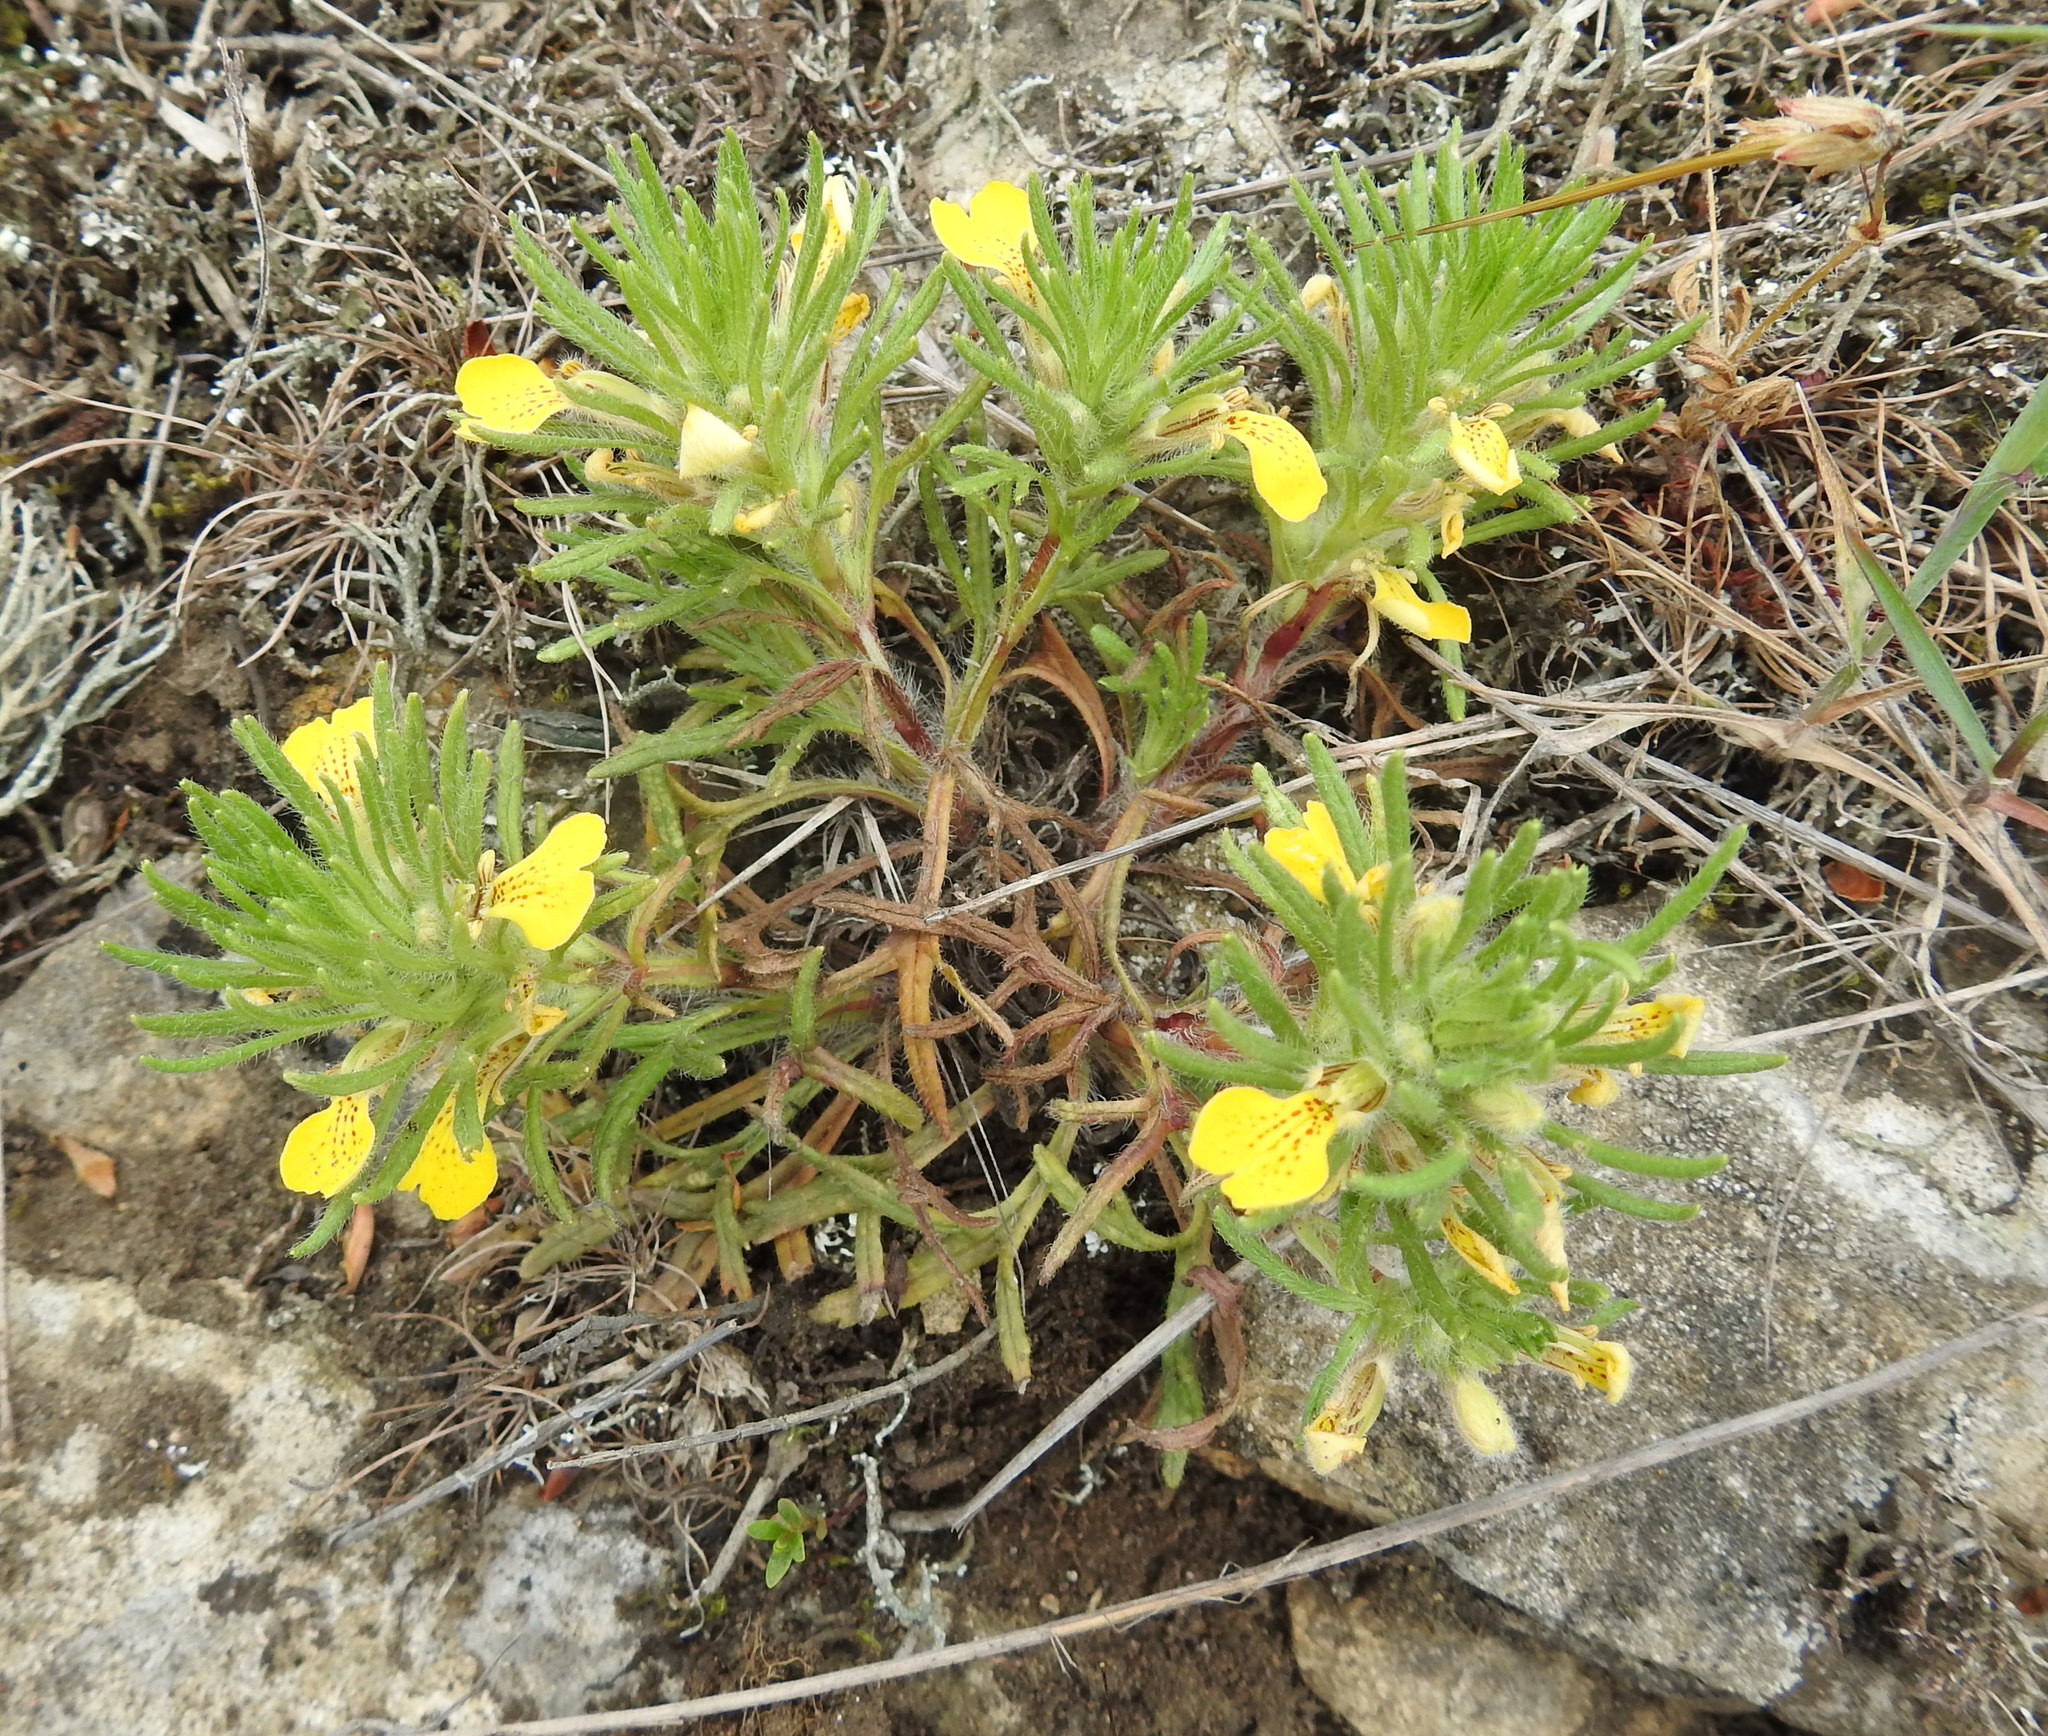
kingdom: Plantae
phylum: Tracheophyta
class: Magnoliopsida
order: Lamiales
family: Lamiaceae
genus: Ajuga
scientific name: Ajuga chamaepitys
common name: Ground-pine
